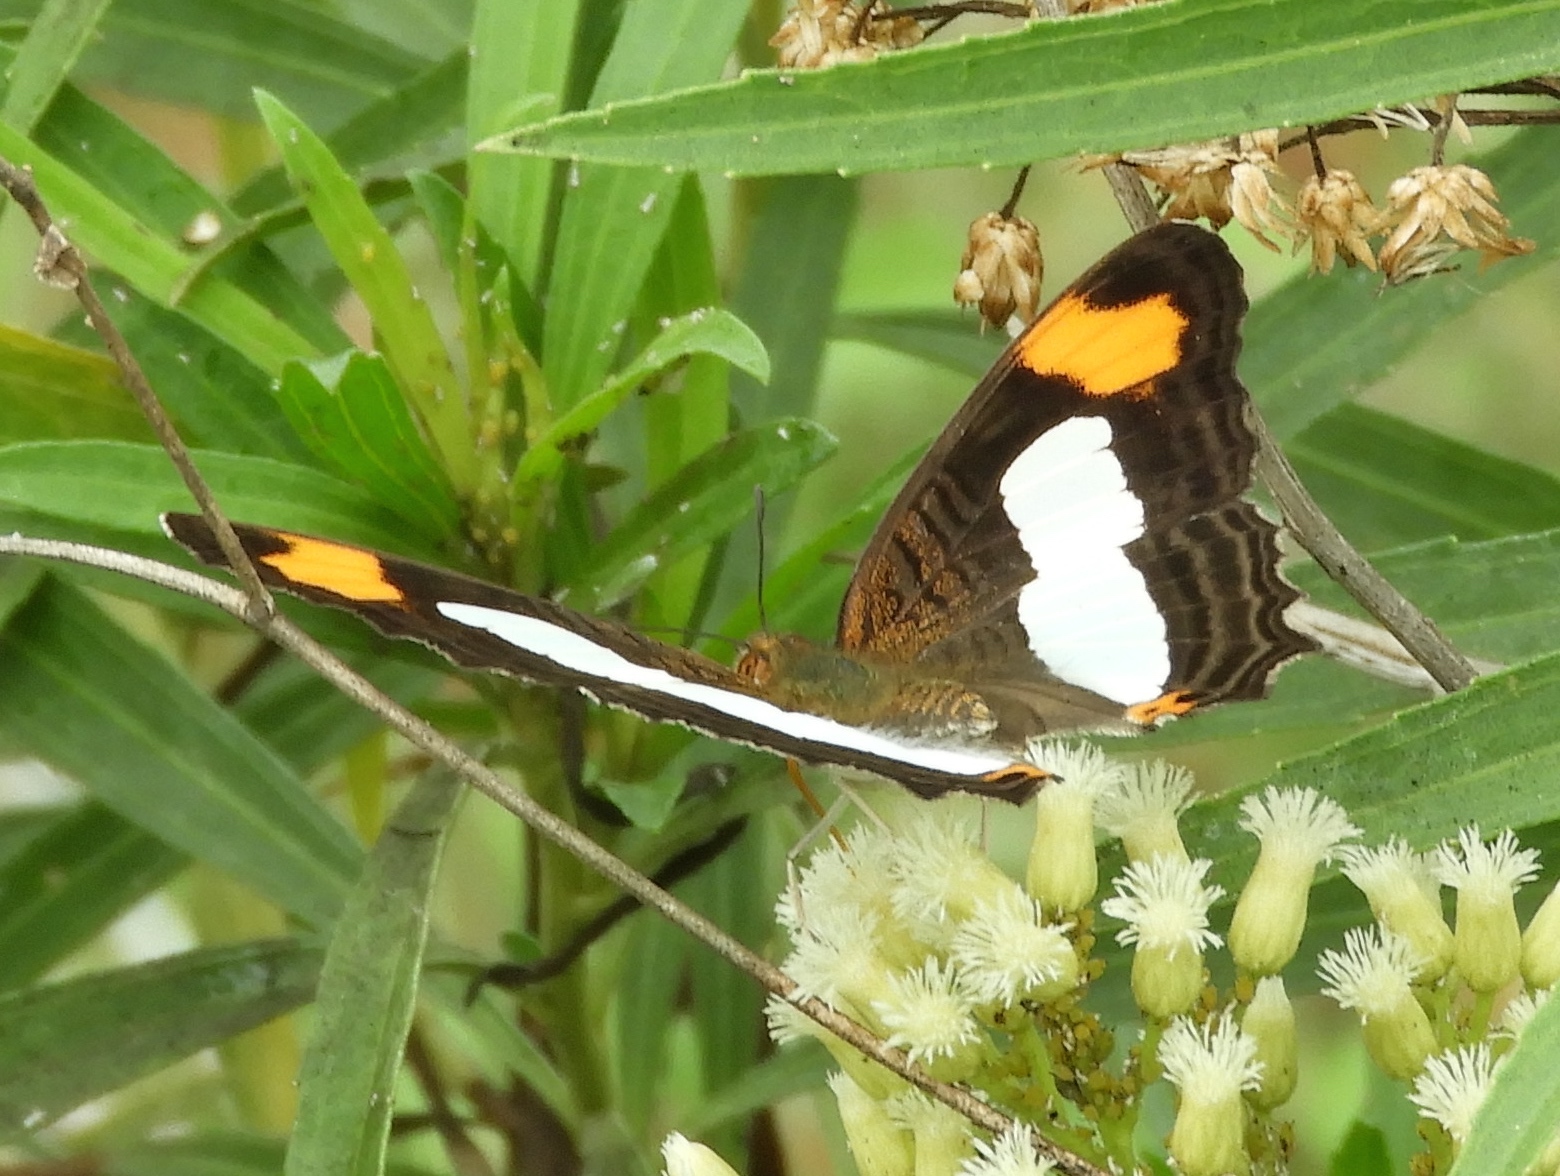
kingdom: Animalia
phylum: Arthropoda
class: Insecta
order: Lepidoptera
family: Nymphalidae
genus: Limenitis
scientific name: Limenitis iphiclus
